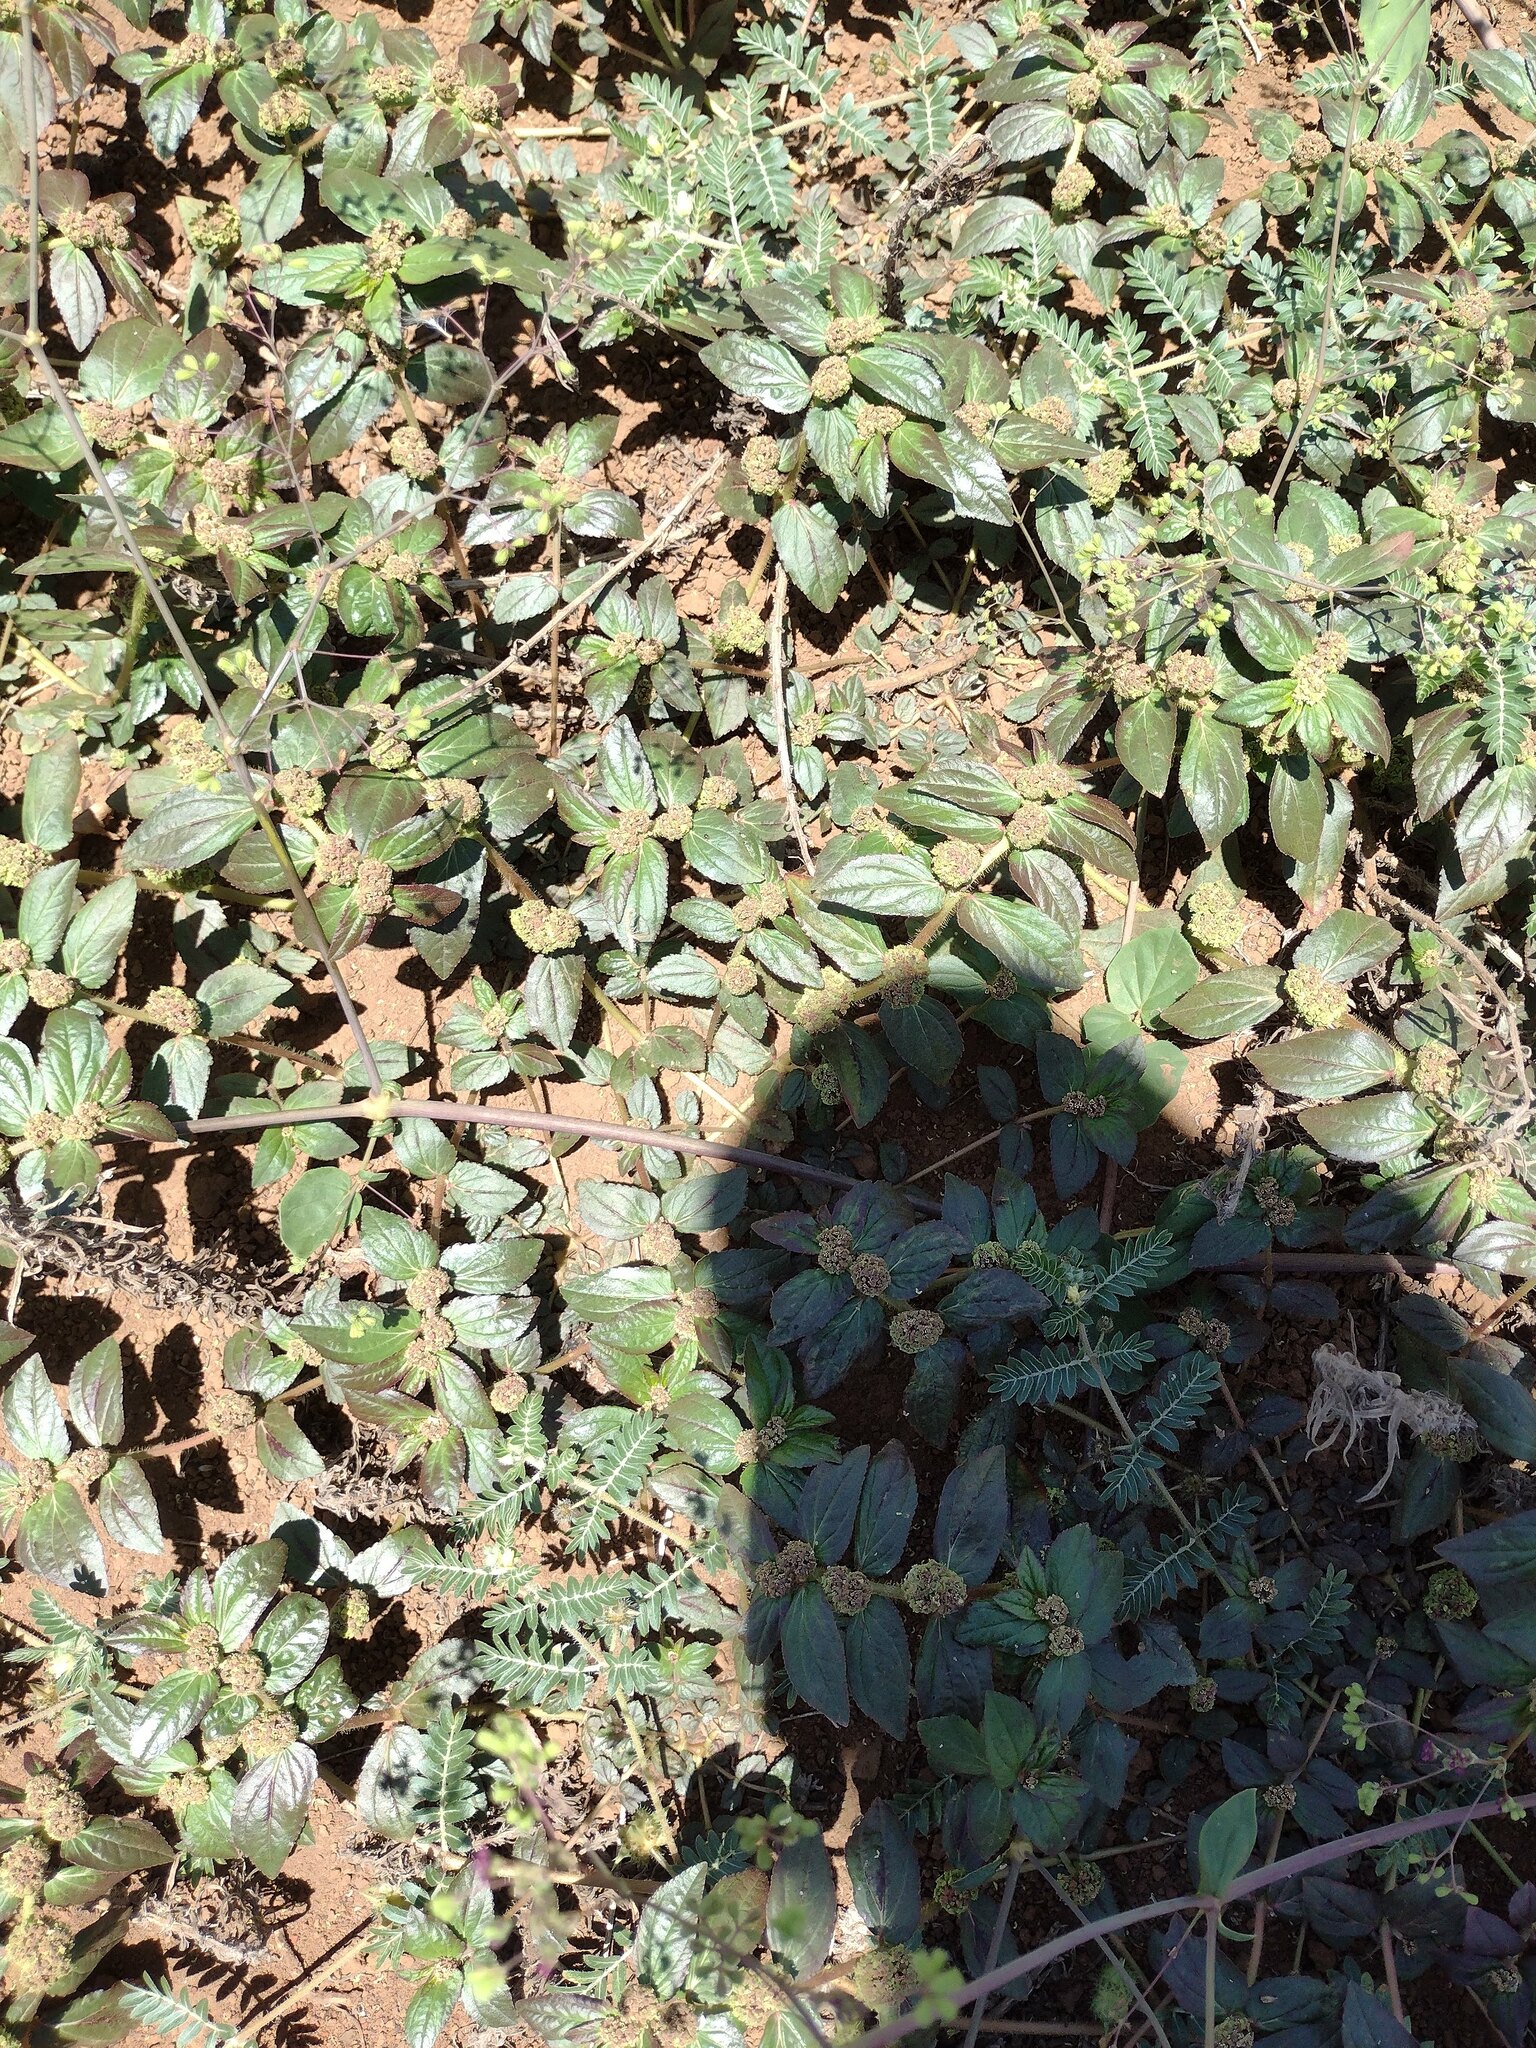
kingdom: Plantae
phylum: Tracheophyta
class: Magnoliopsida
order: Malpighiales
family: Euphorbiaceae
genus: Euphorbia
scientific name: Euphorbia hirta
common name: Pillpod sandmat
